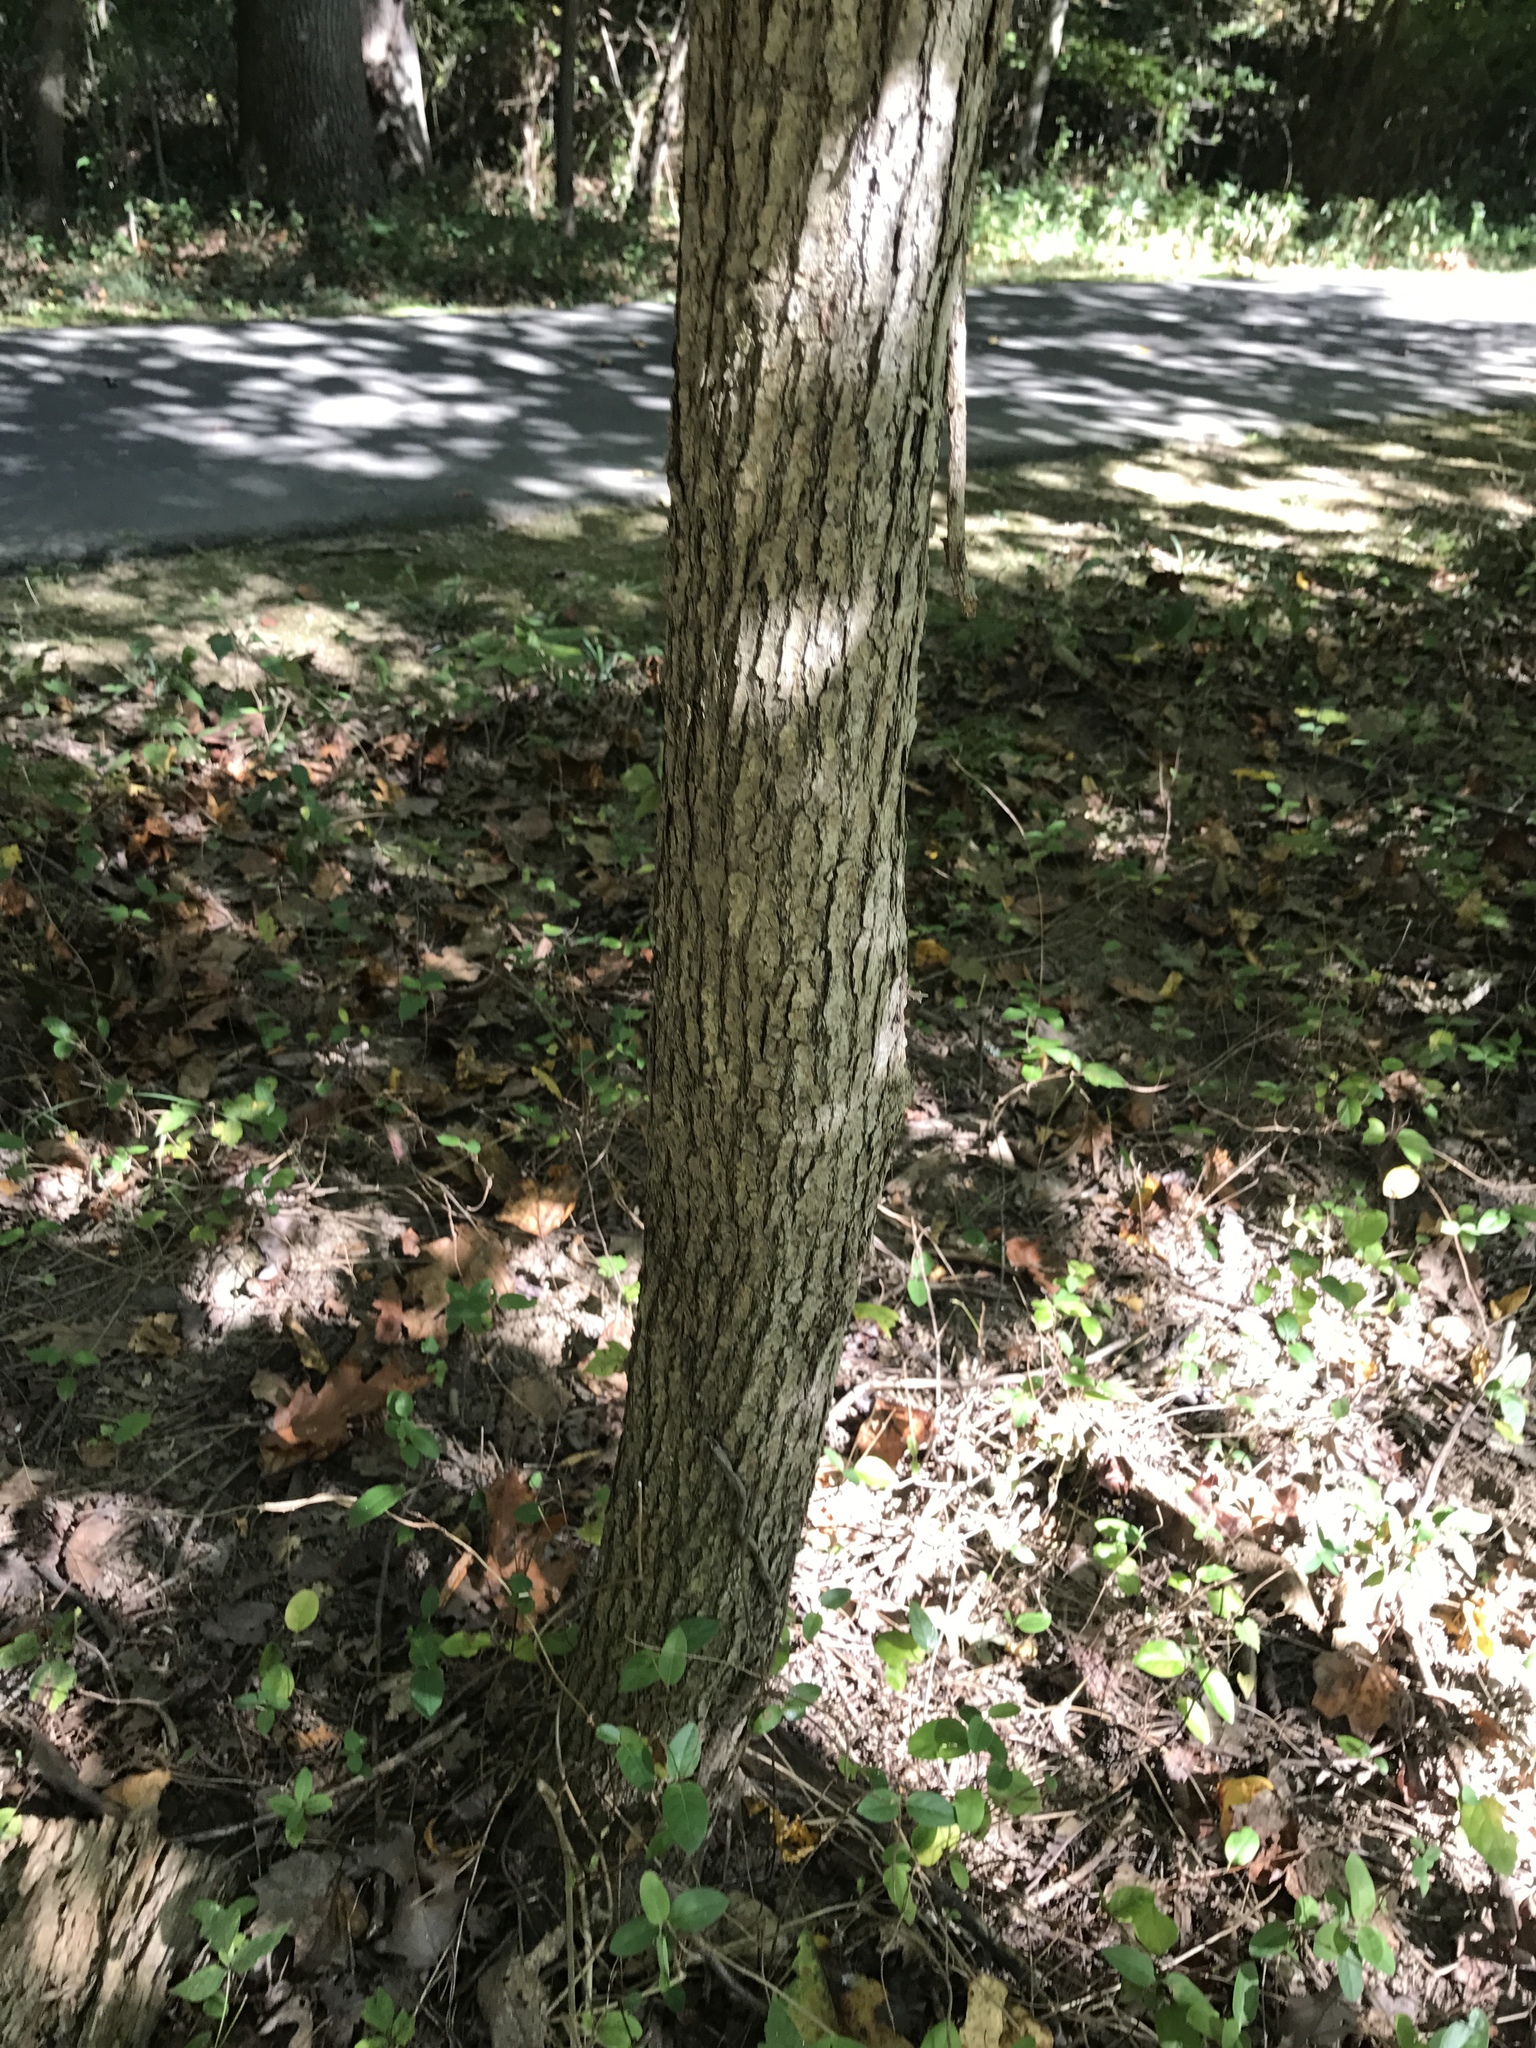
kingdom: Plantae
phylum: Tracheophyta
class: Magnoliopsida
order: Cornales
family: Nyssaceae
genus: Nyssa
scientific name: Nyssa sylvatica
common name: Black tupelo
